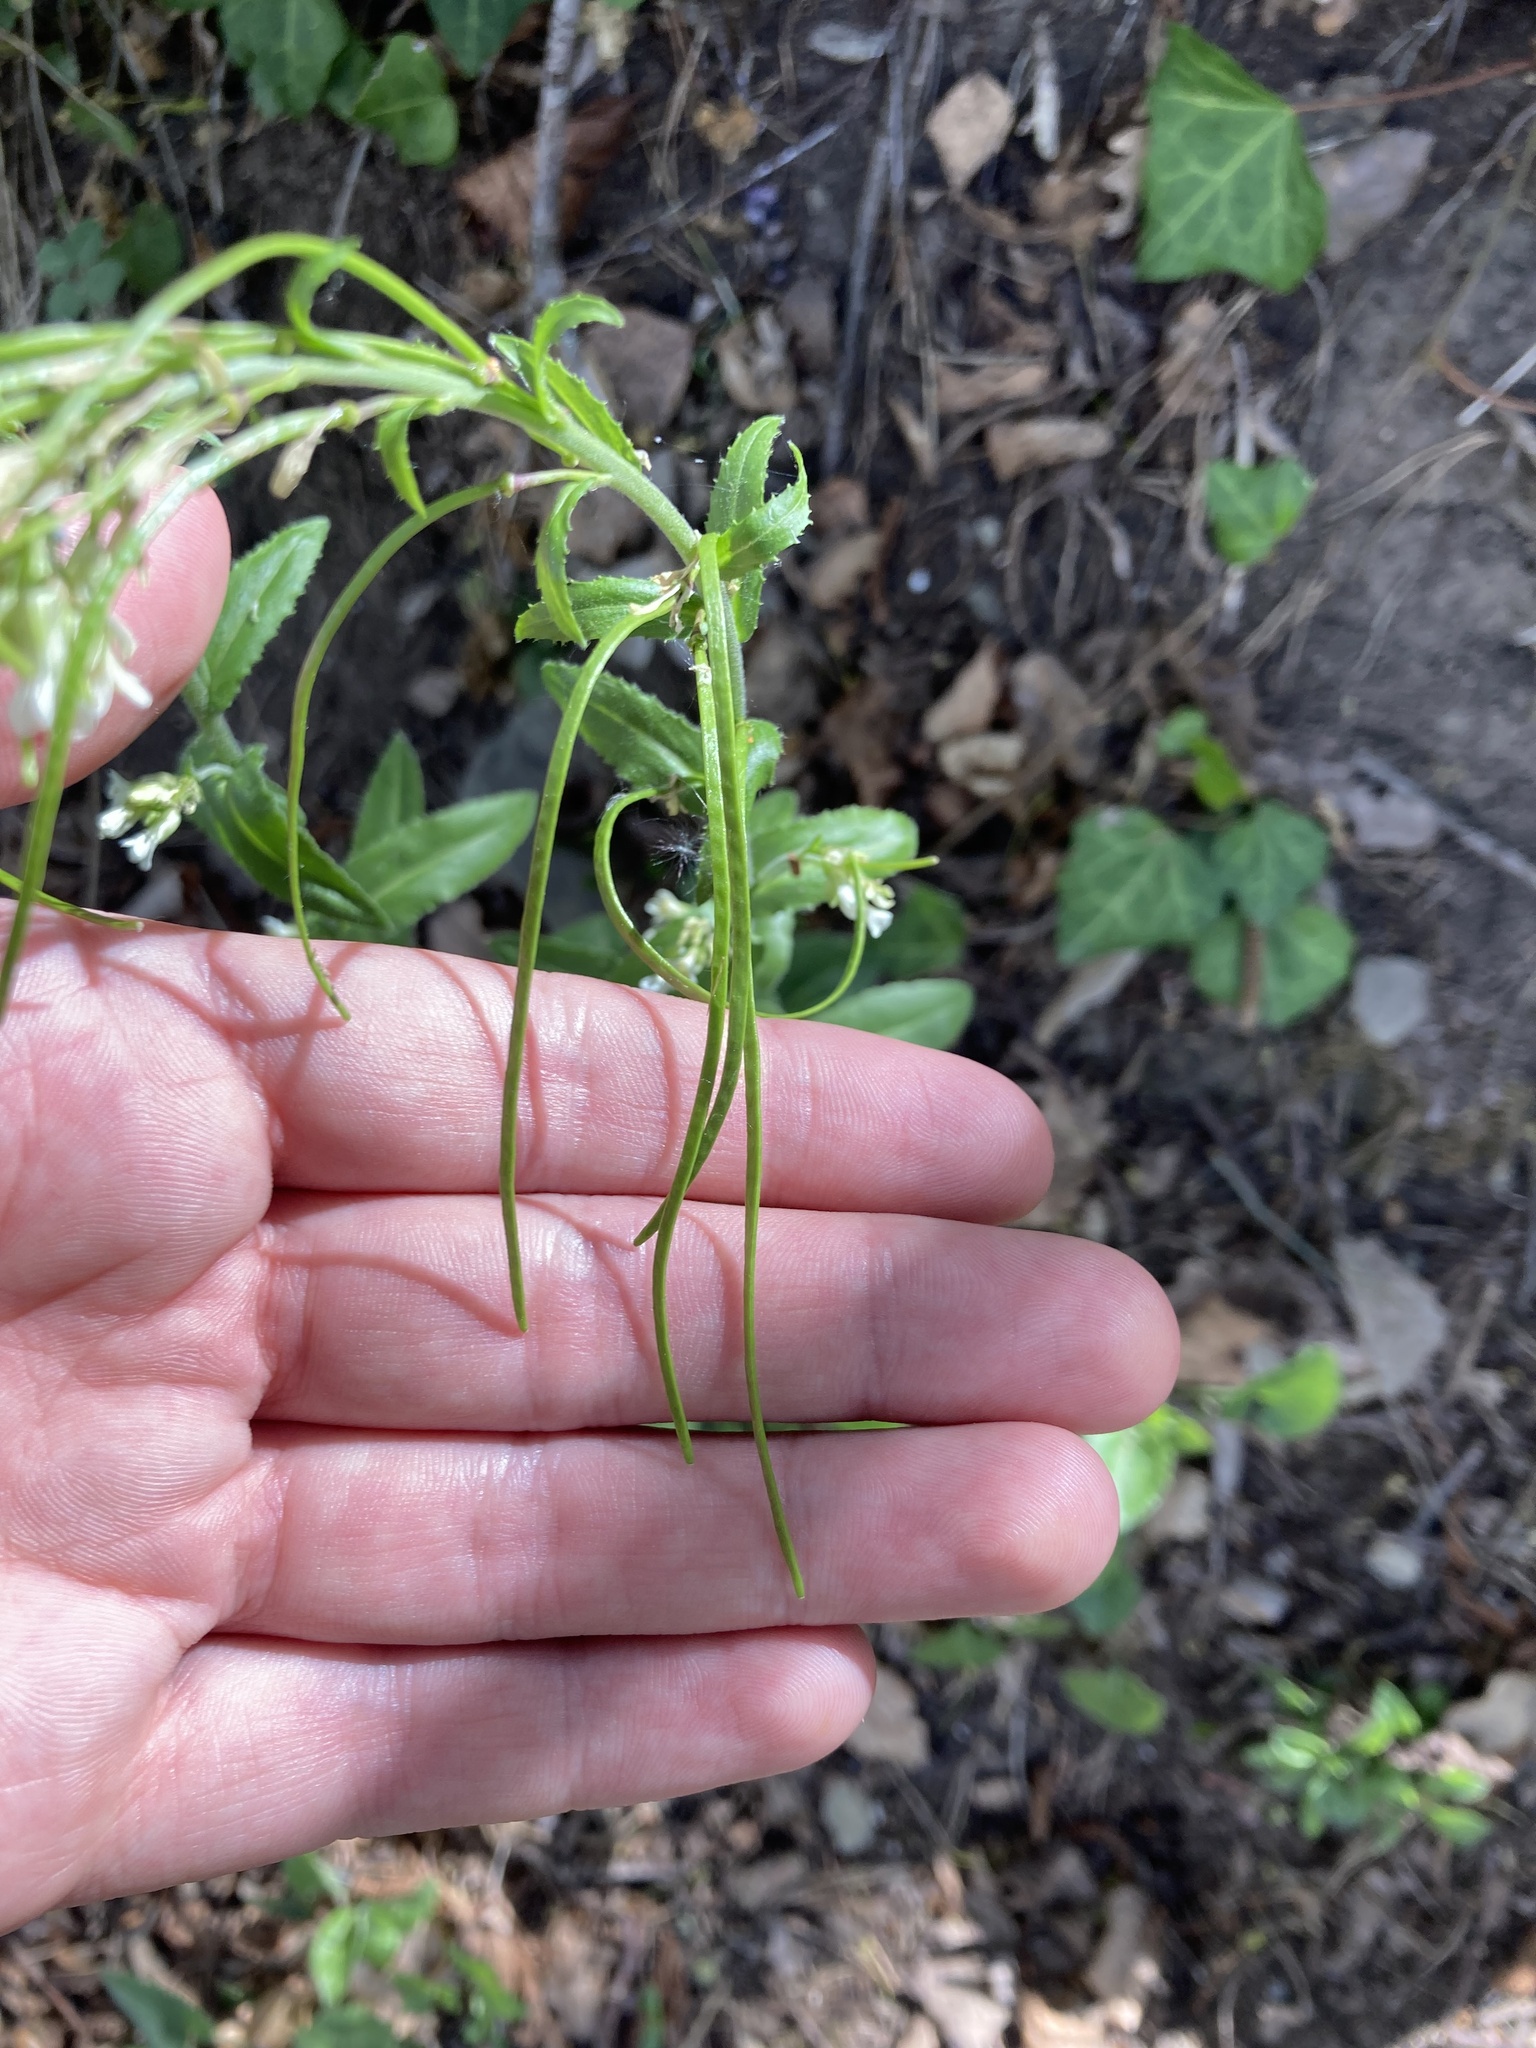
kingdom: Plantae
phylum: Tracheophyta
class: Magnoliopsida
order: Brassicales
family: Brassicaceae
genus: Pseudoturritis
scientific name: Pseudoturritis turrita
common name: Tower cress
